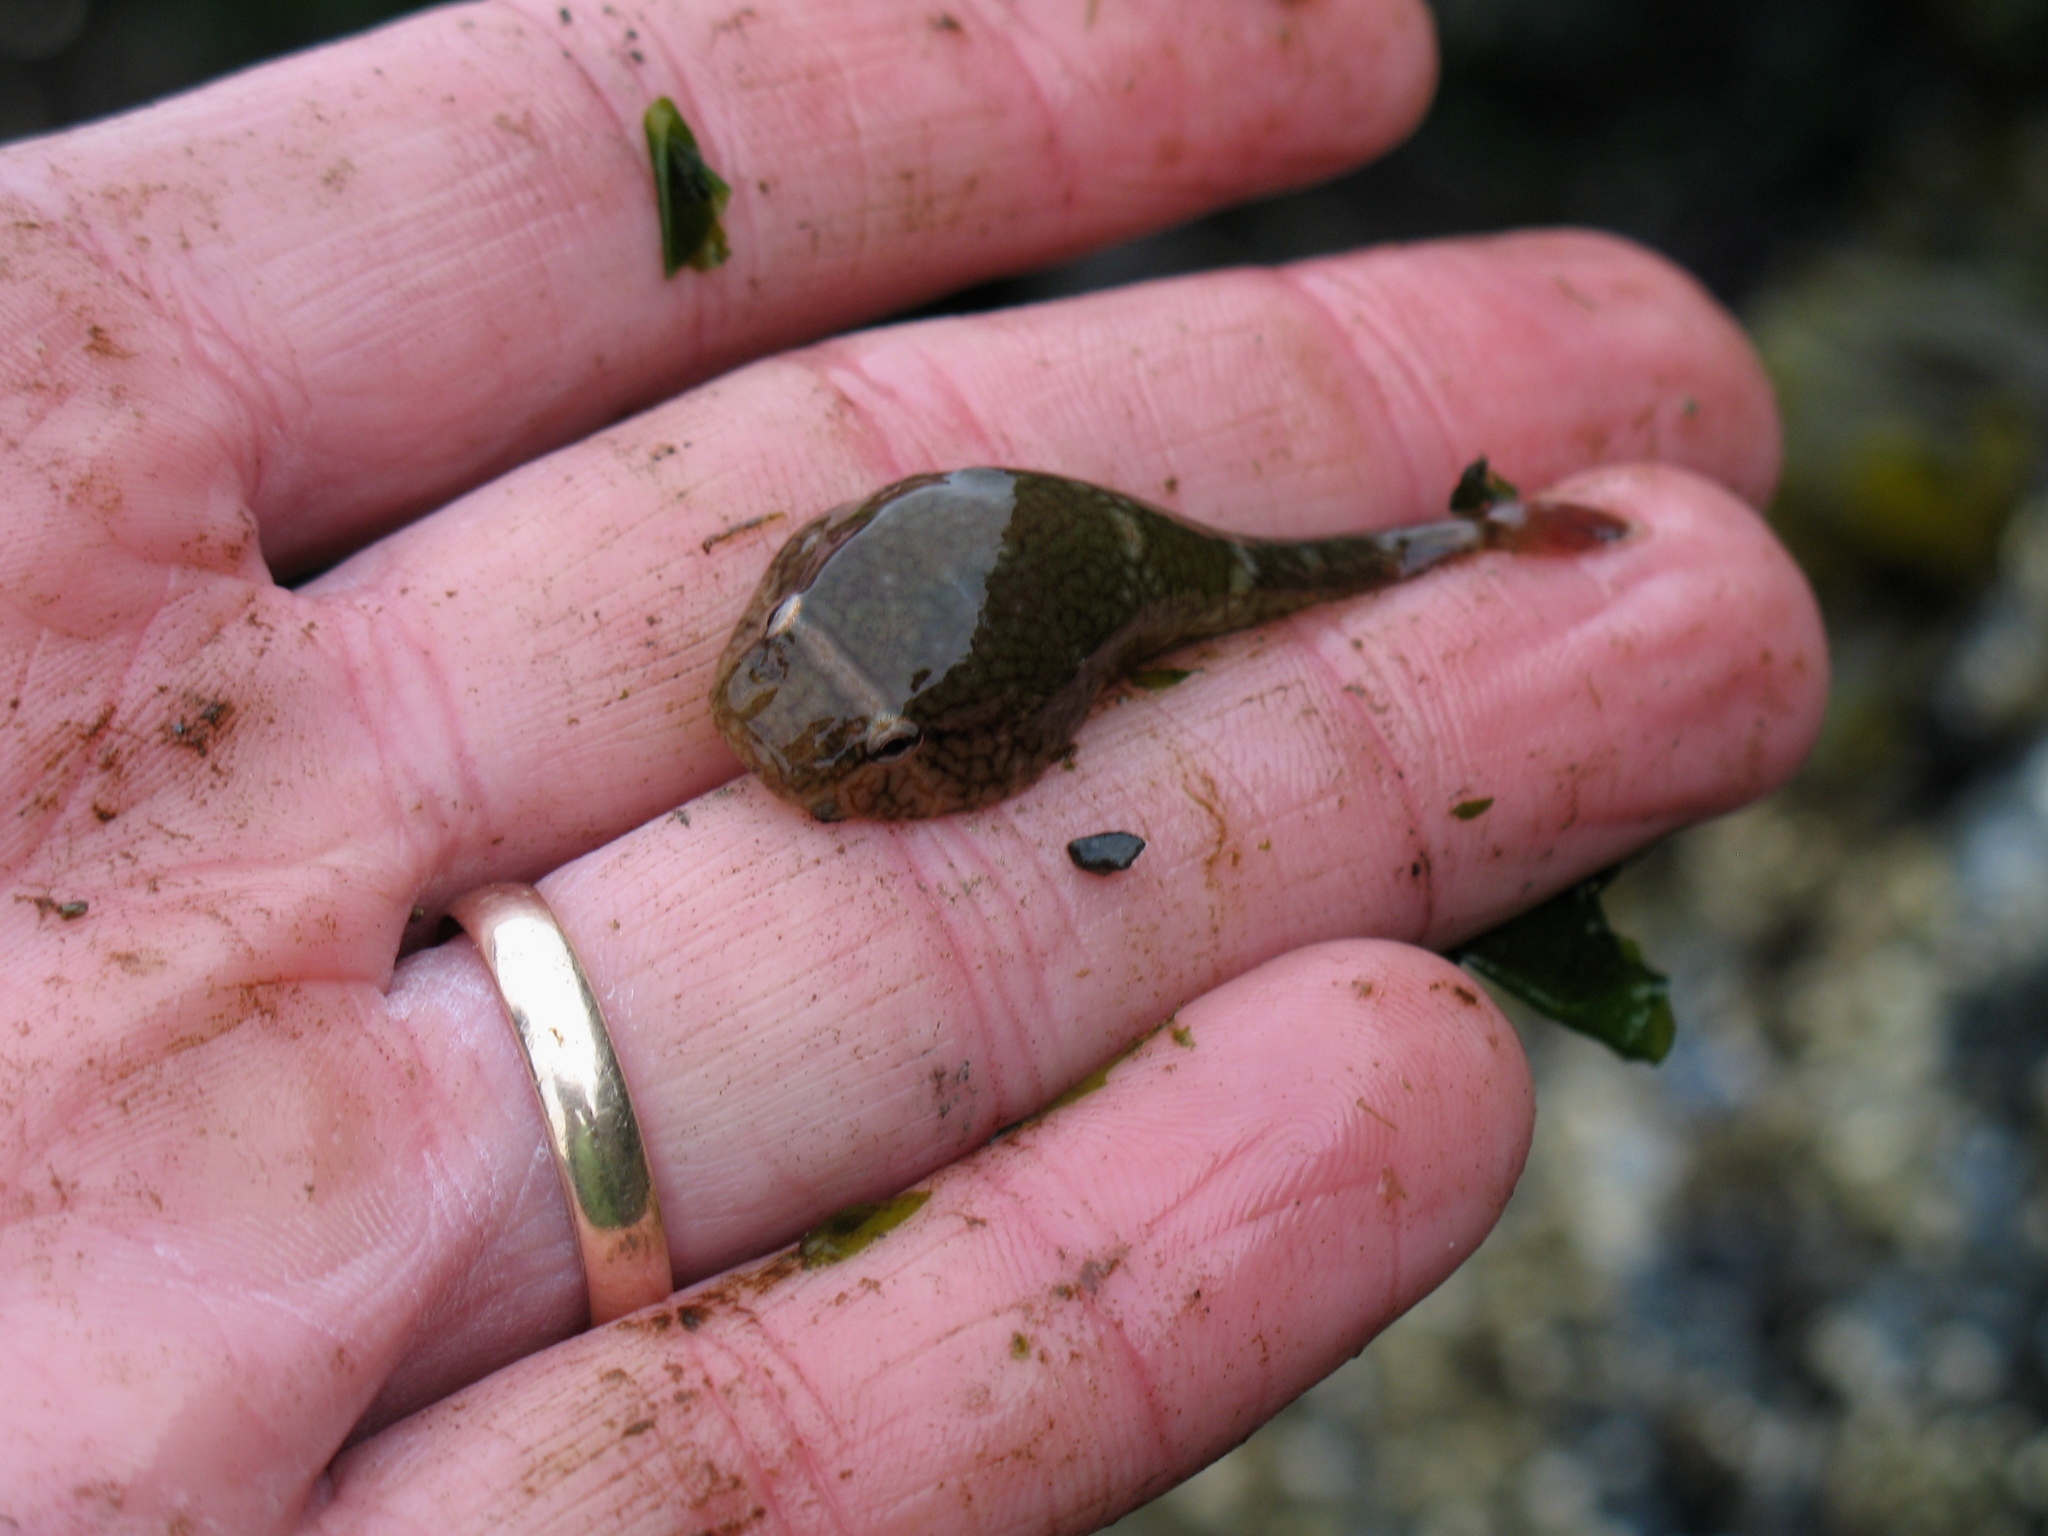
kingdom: Animalia
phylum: Chordata
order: Gobiesociformes
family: Gobiesocidae
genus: Gobiesox
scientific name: Gobiesox maeandricus
